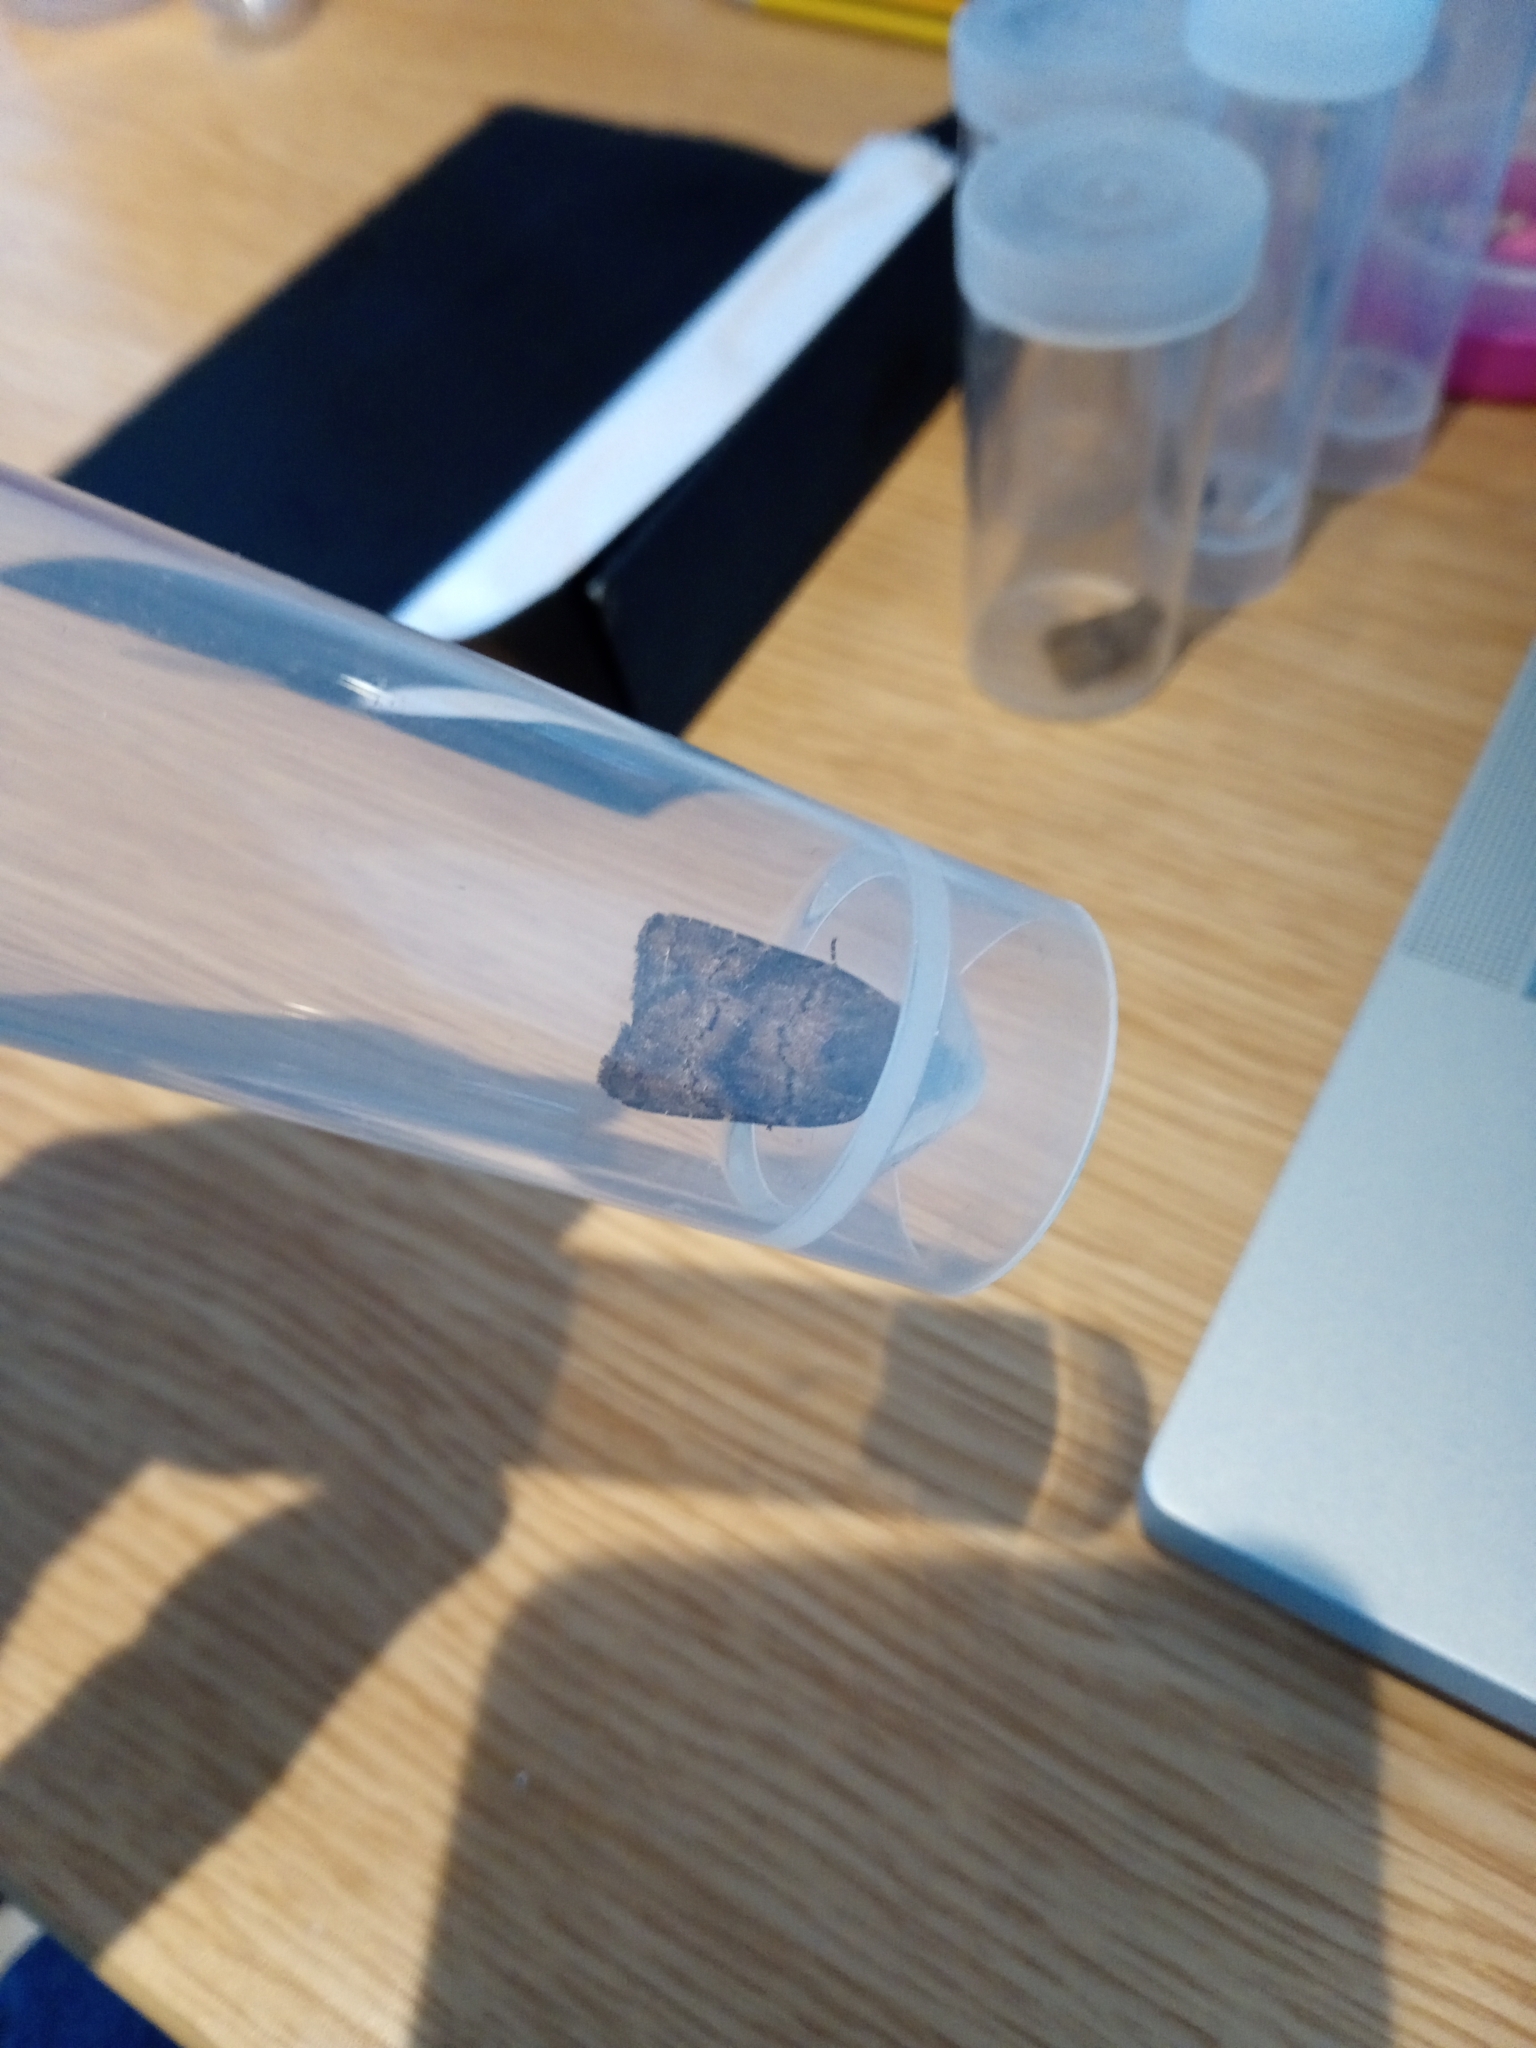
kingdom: Animalia
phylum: Arthropoda
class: Insecta
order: Lepidoptera
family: Noctuidae
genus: Charanyca
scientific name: Charanyca ferruginea
